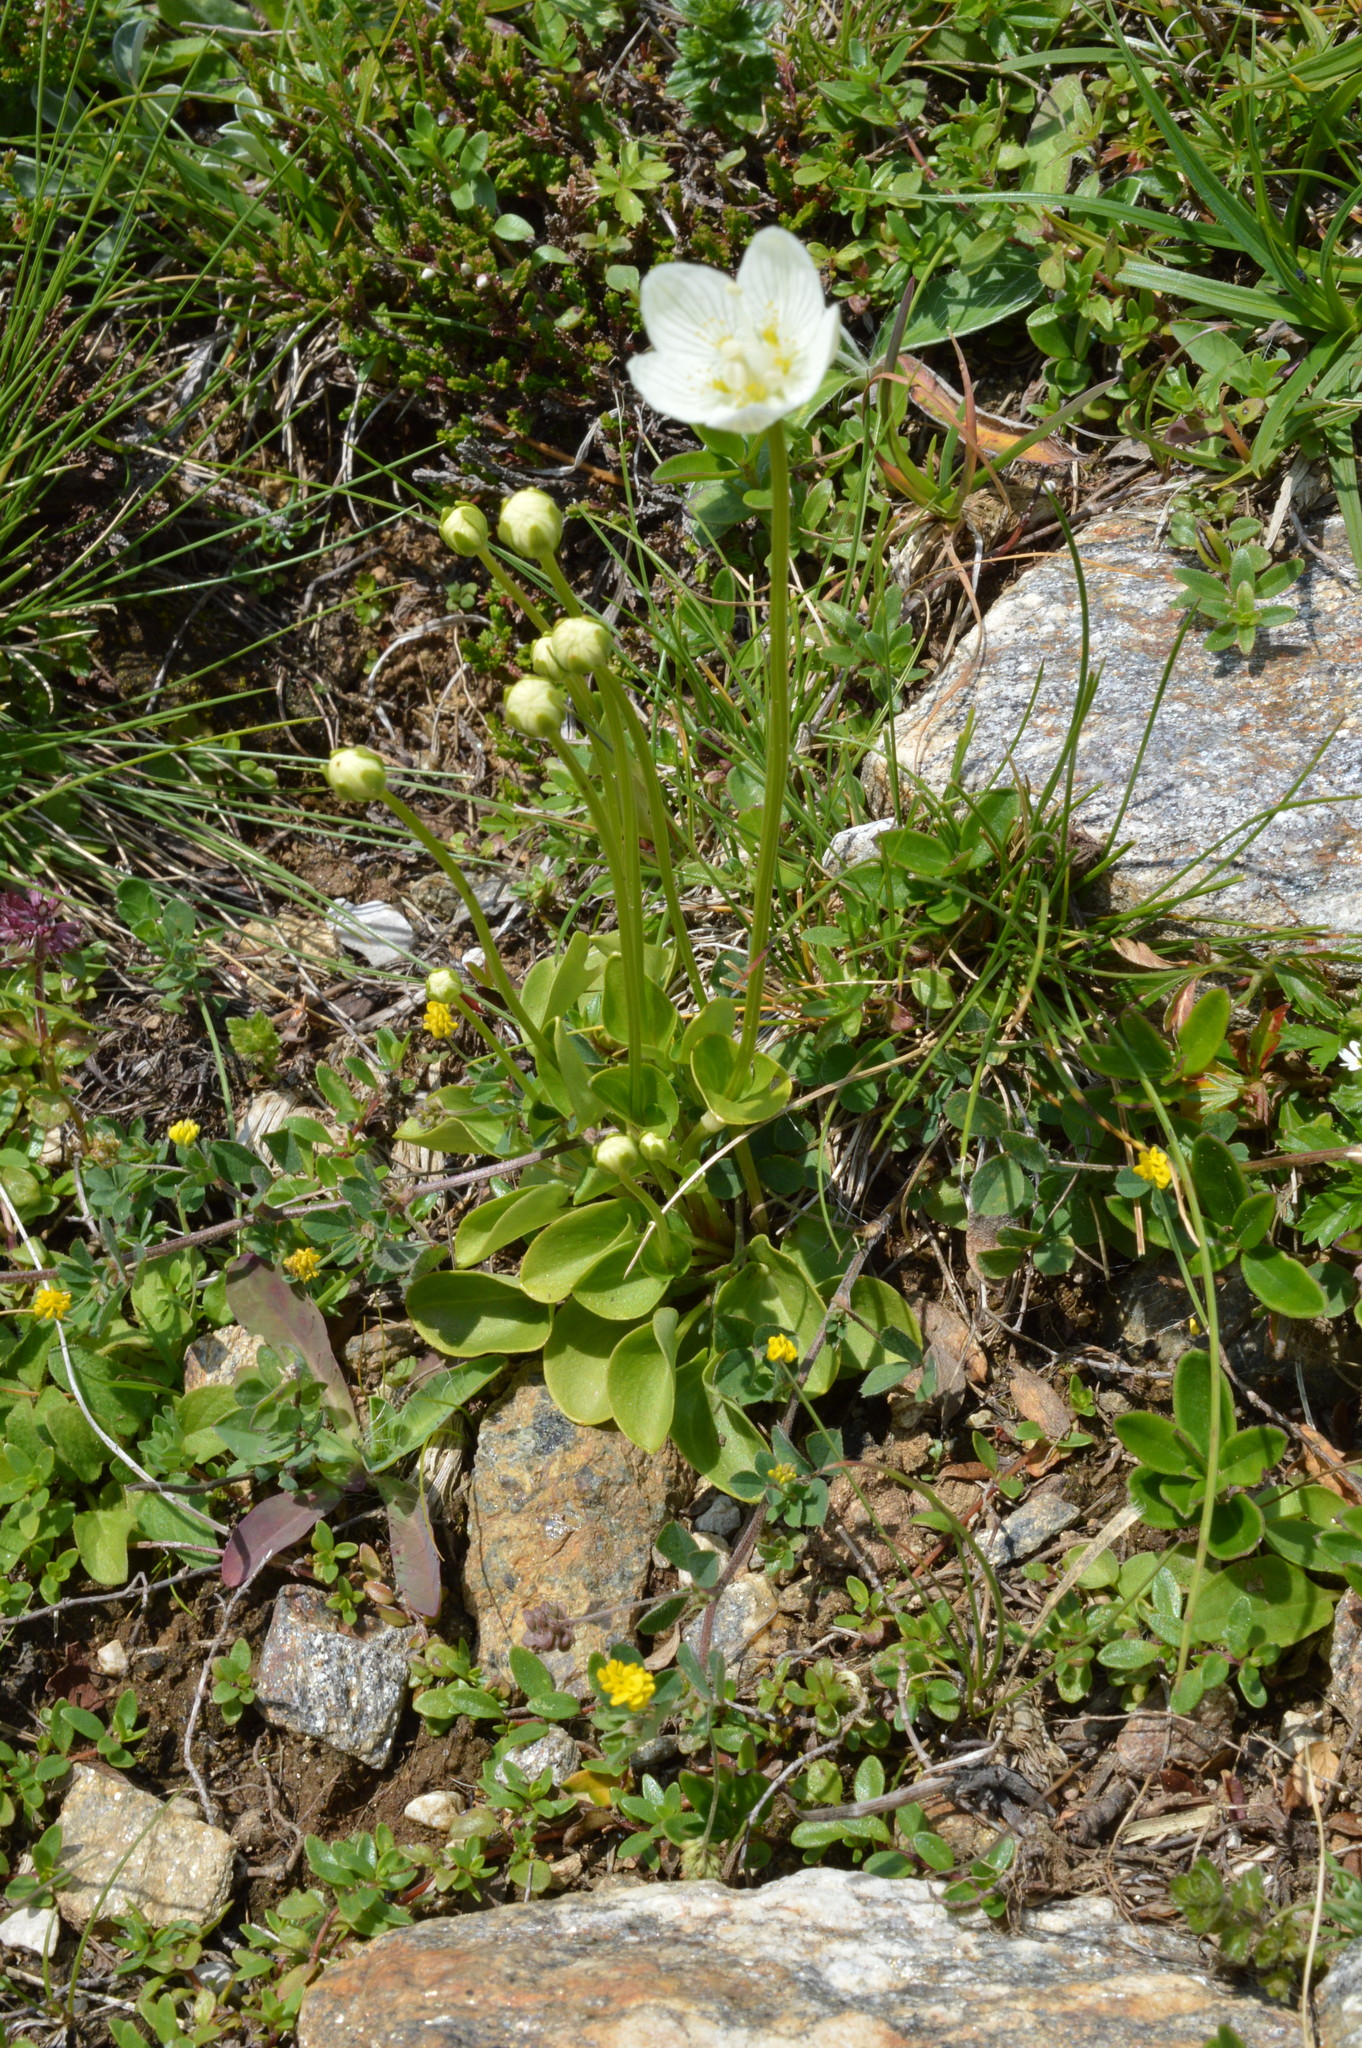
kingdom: Plantae
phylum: Tracheophyta
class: Magnoliopsida
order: Celastrales
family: Parnassiaceae
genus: Parnassia
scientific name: Parnassia palustris
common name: Grass-of-parnassus
